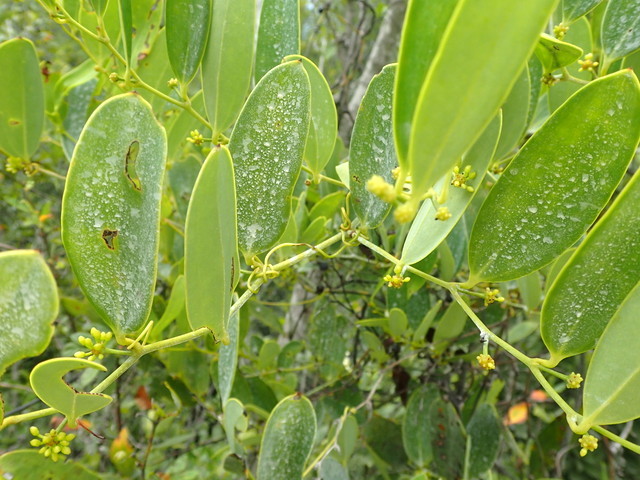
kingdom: Plantae
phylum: Tracheophyta
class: Liliopsida
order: Liliales
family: Smilacaceae
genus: Smilax
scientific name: Smilax laurifolia
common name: Bamboovine
